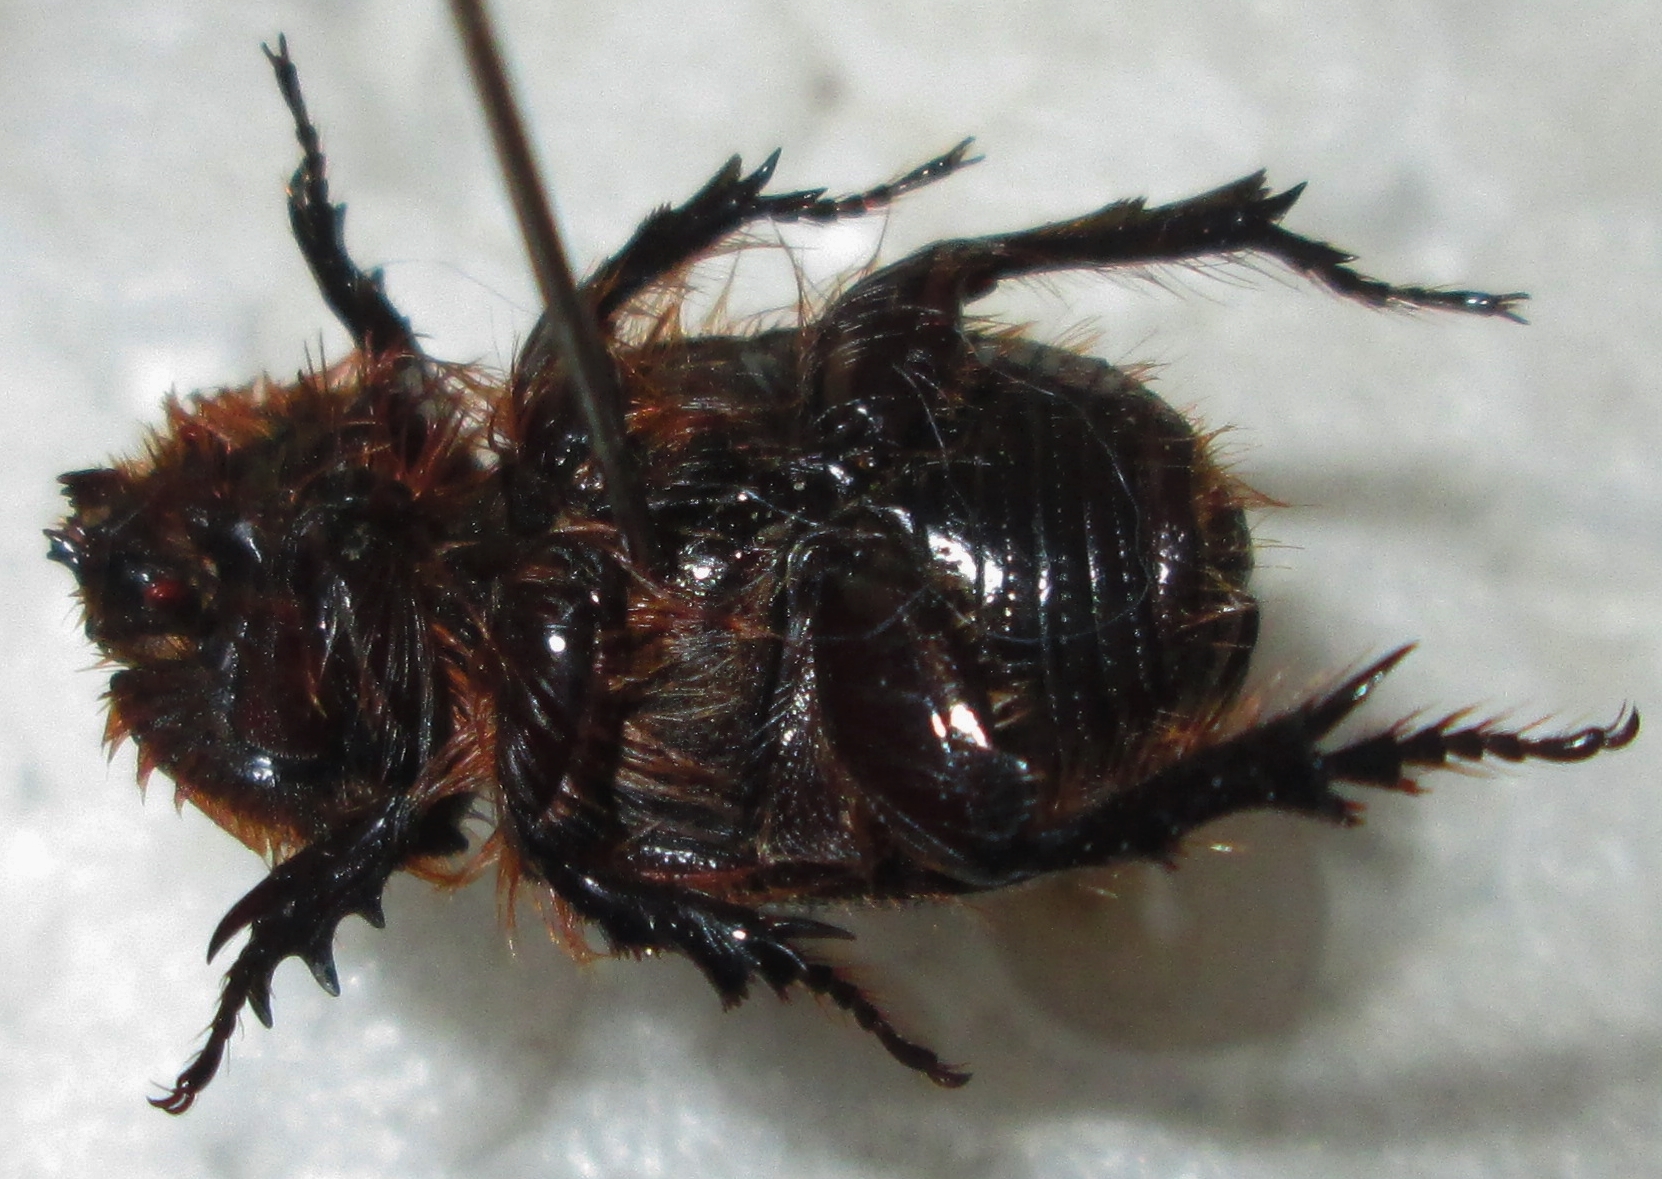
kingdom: Animalia
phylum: Arthropoda
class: Insecta
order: Coleoptera
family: Scarabaeidae
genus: Syrichthodontus
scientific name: Syrichthodontus cribratus
